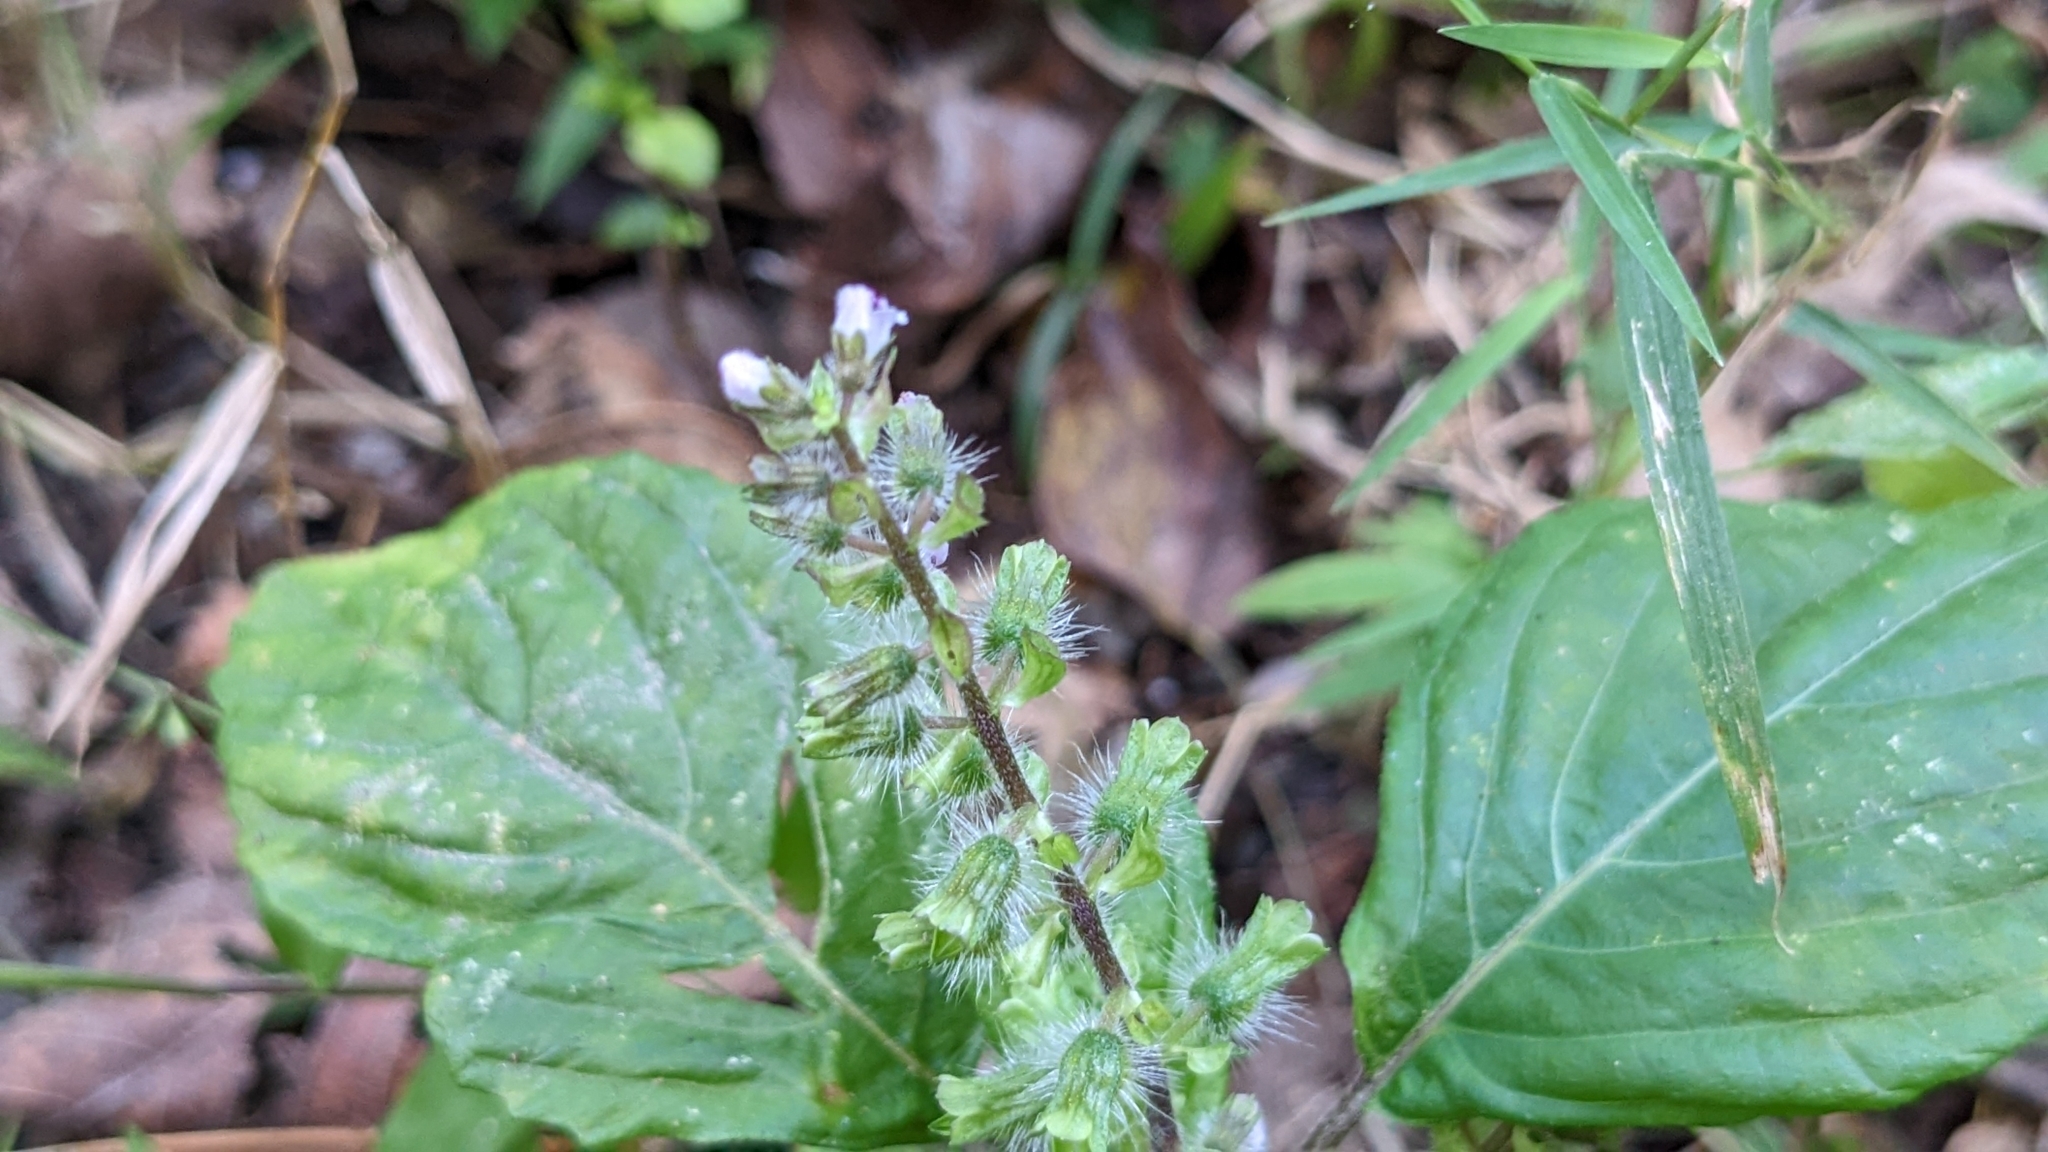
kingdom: Plantae
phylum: Tracheophyta
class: Magnoliopsida
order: Lamiales
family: Lamiaceae
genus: Perilla
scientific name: Perilla frutescens
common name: Perilla
